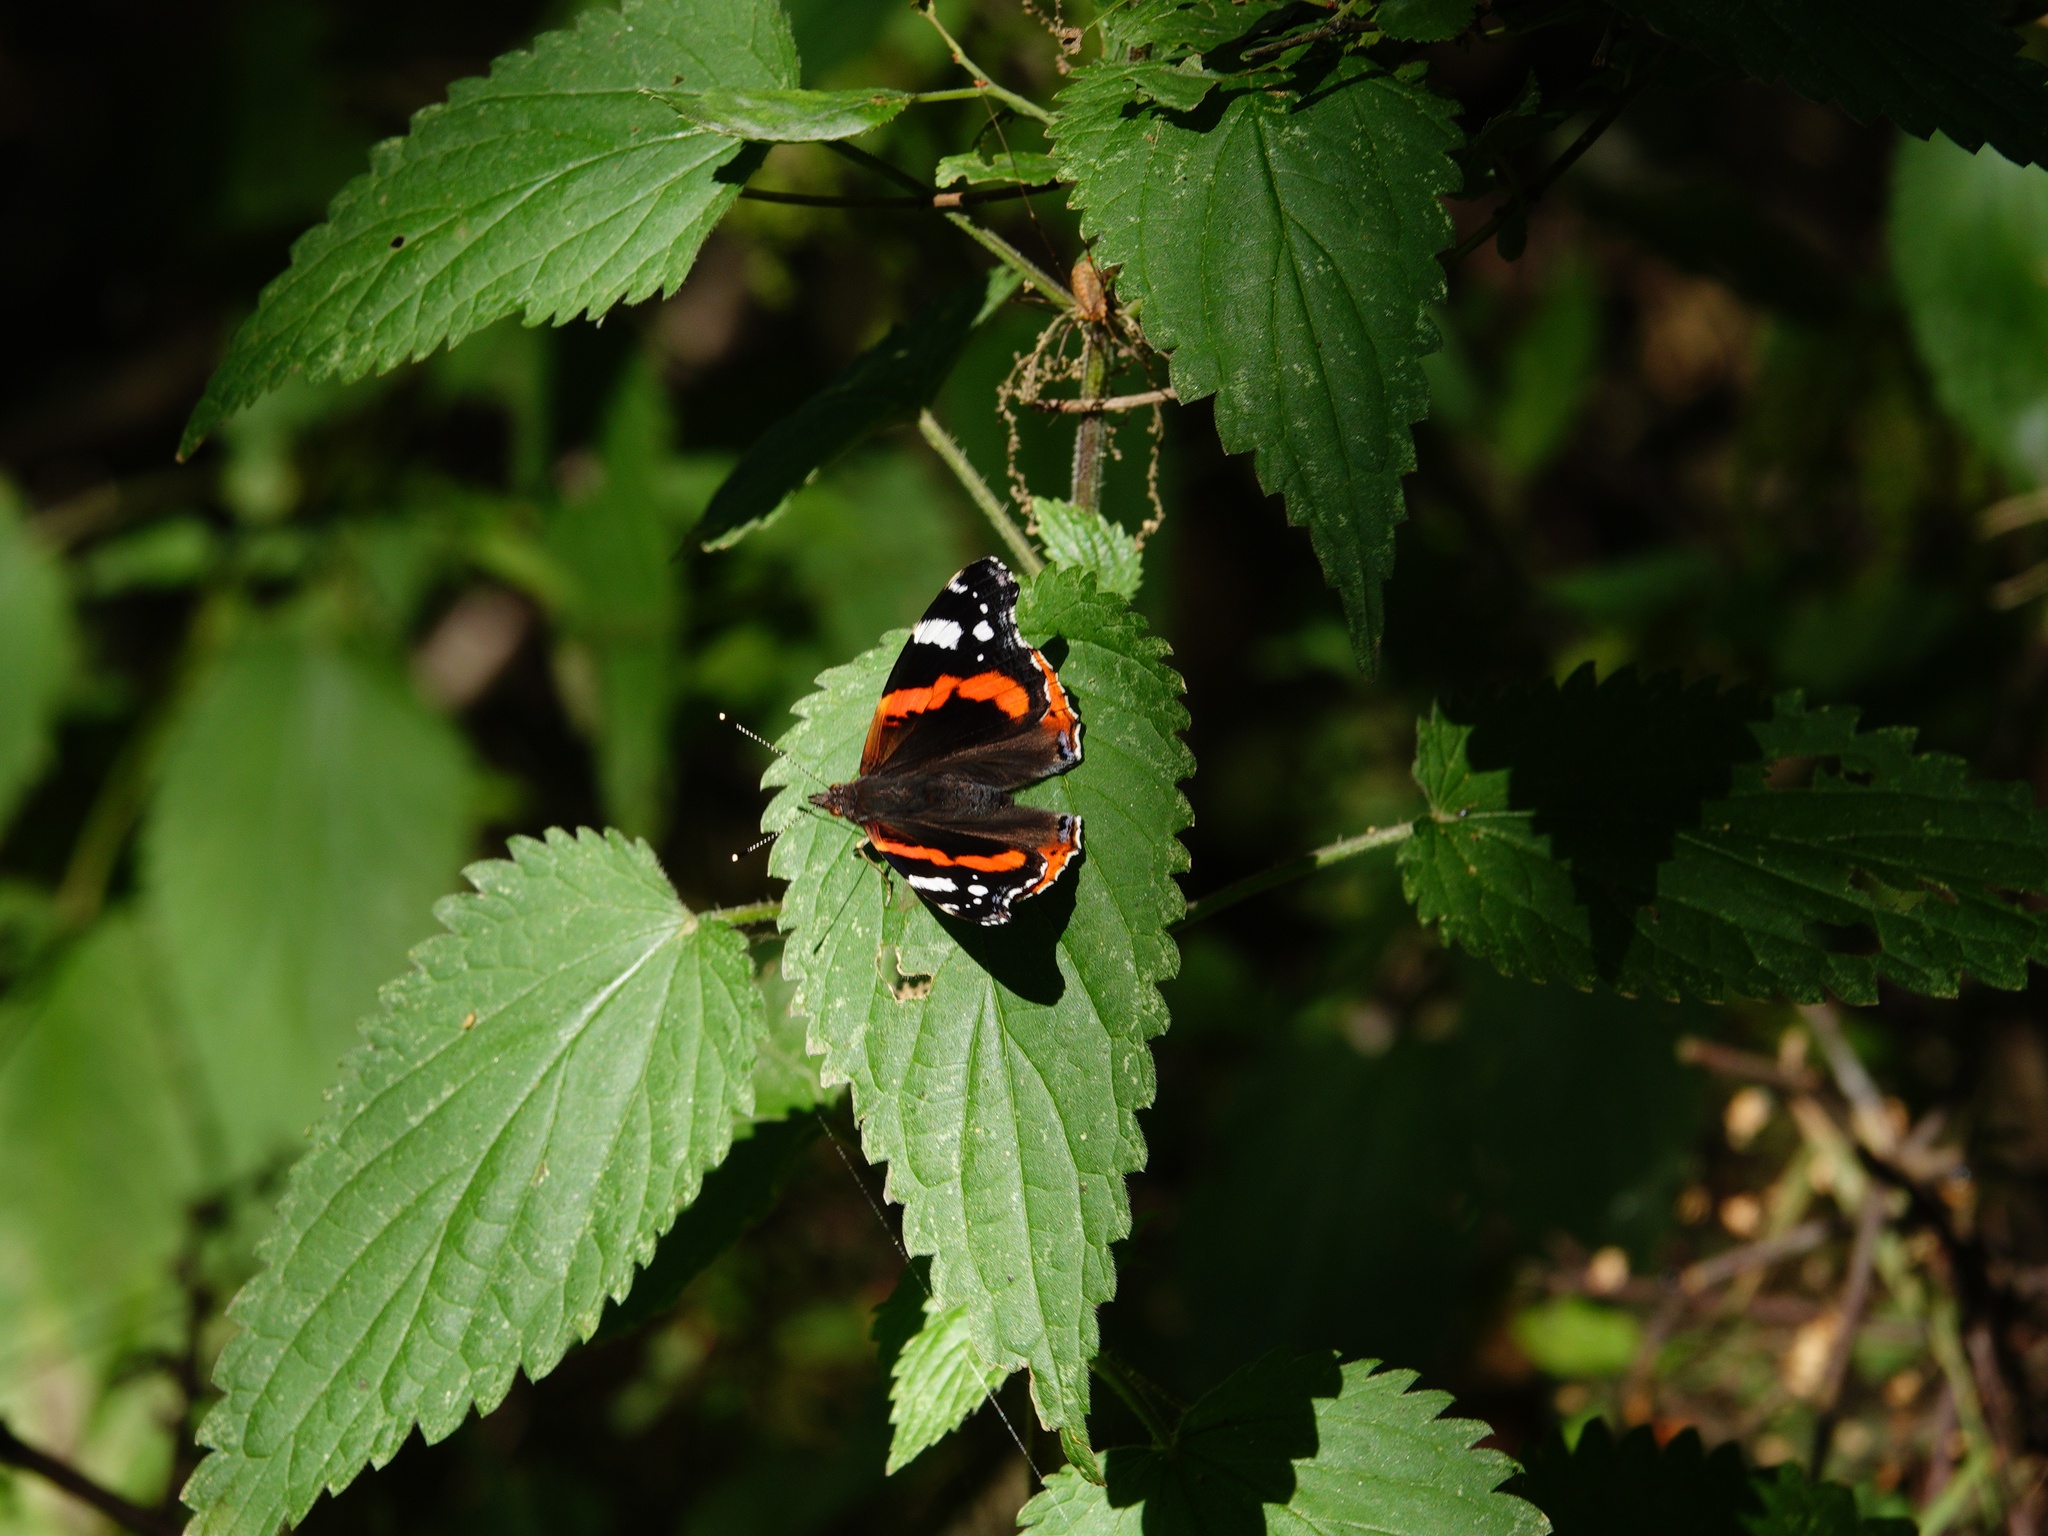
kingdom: Animalia
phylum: Arthropoda
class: Insecta
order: Lepidoptera
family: Nymphalidae
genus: Vanessa
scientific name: Vanessa atalanta
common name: Red admiral
